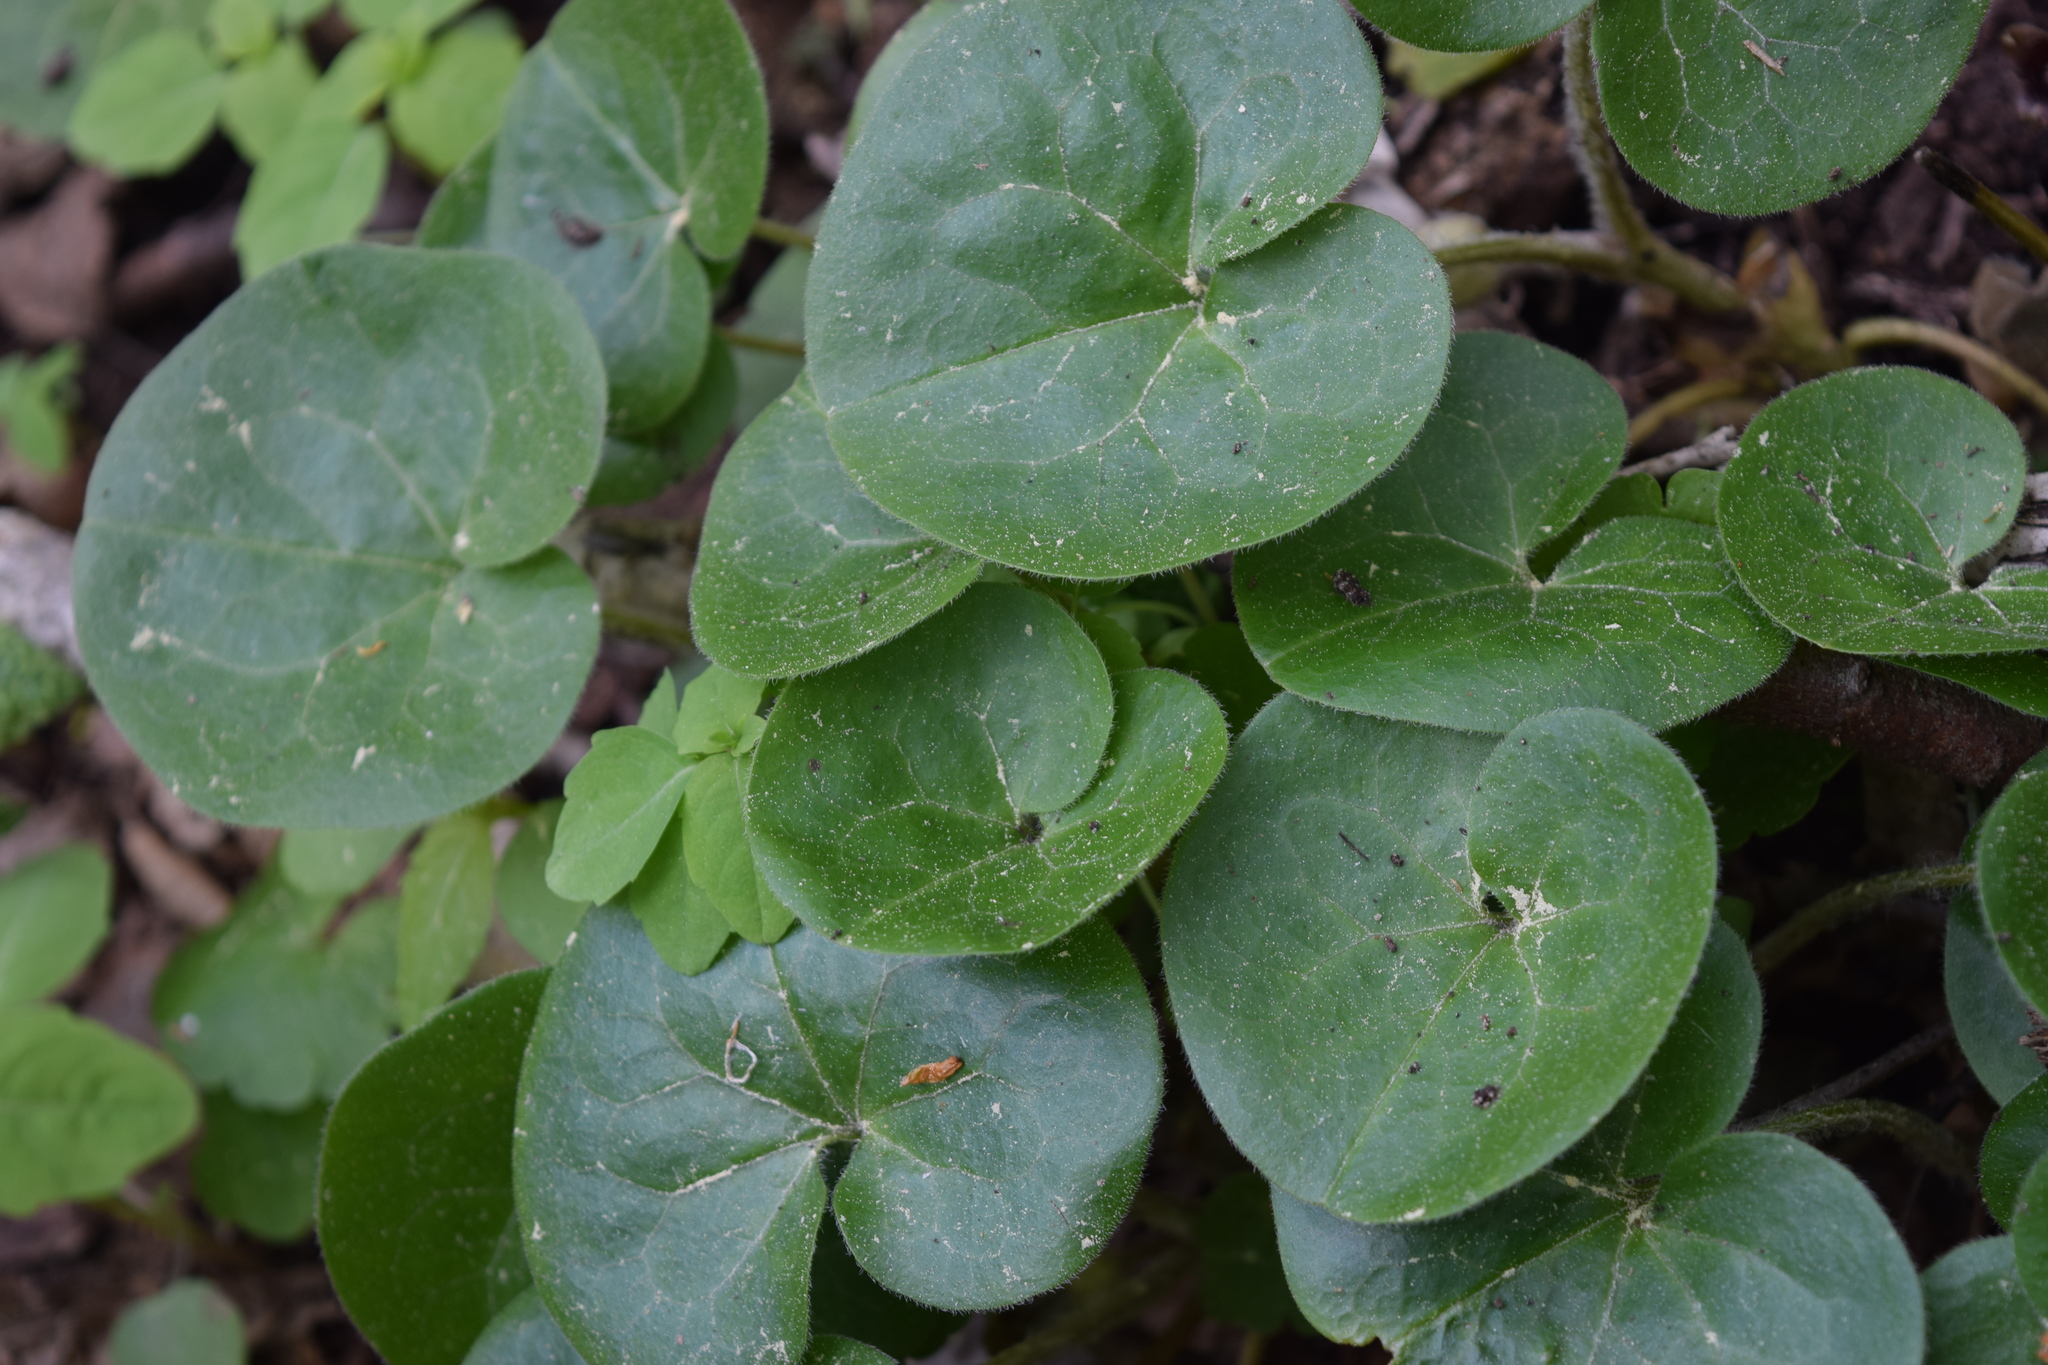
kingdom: Plantae
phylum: Tracheophyta
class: Magnoliopsida
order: Piperales
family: Aristolochiaceae
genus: Asarum
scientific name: Asarum europaeum
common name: Asarabacca
